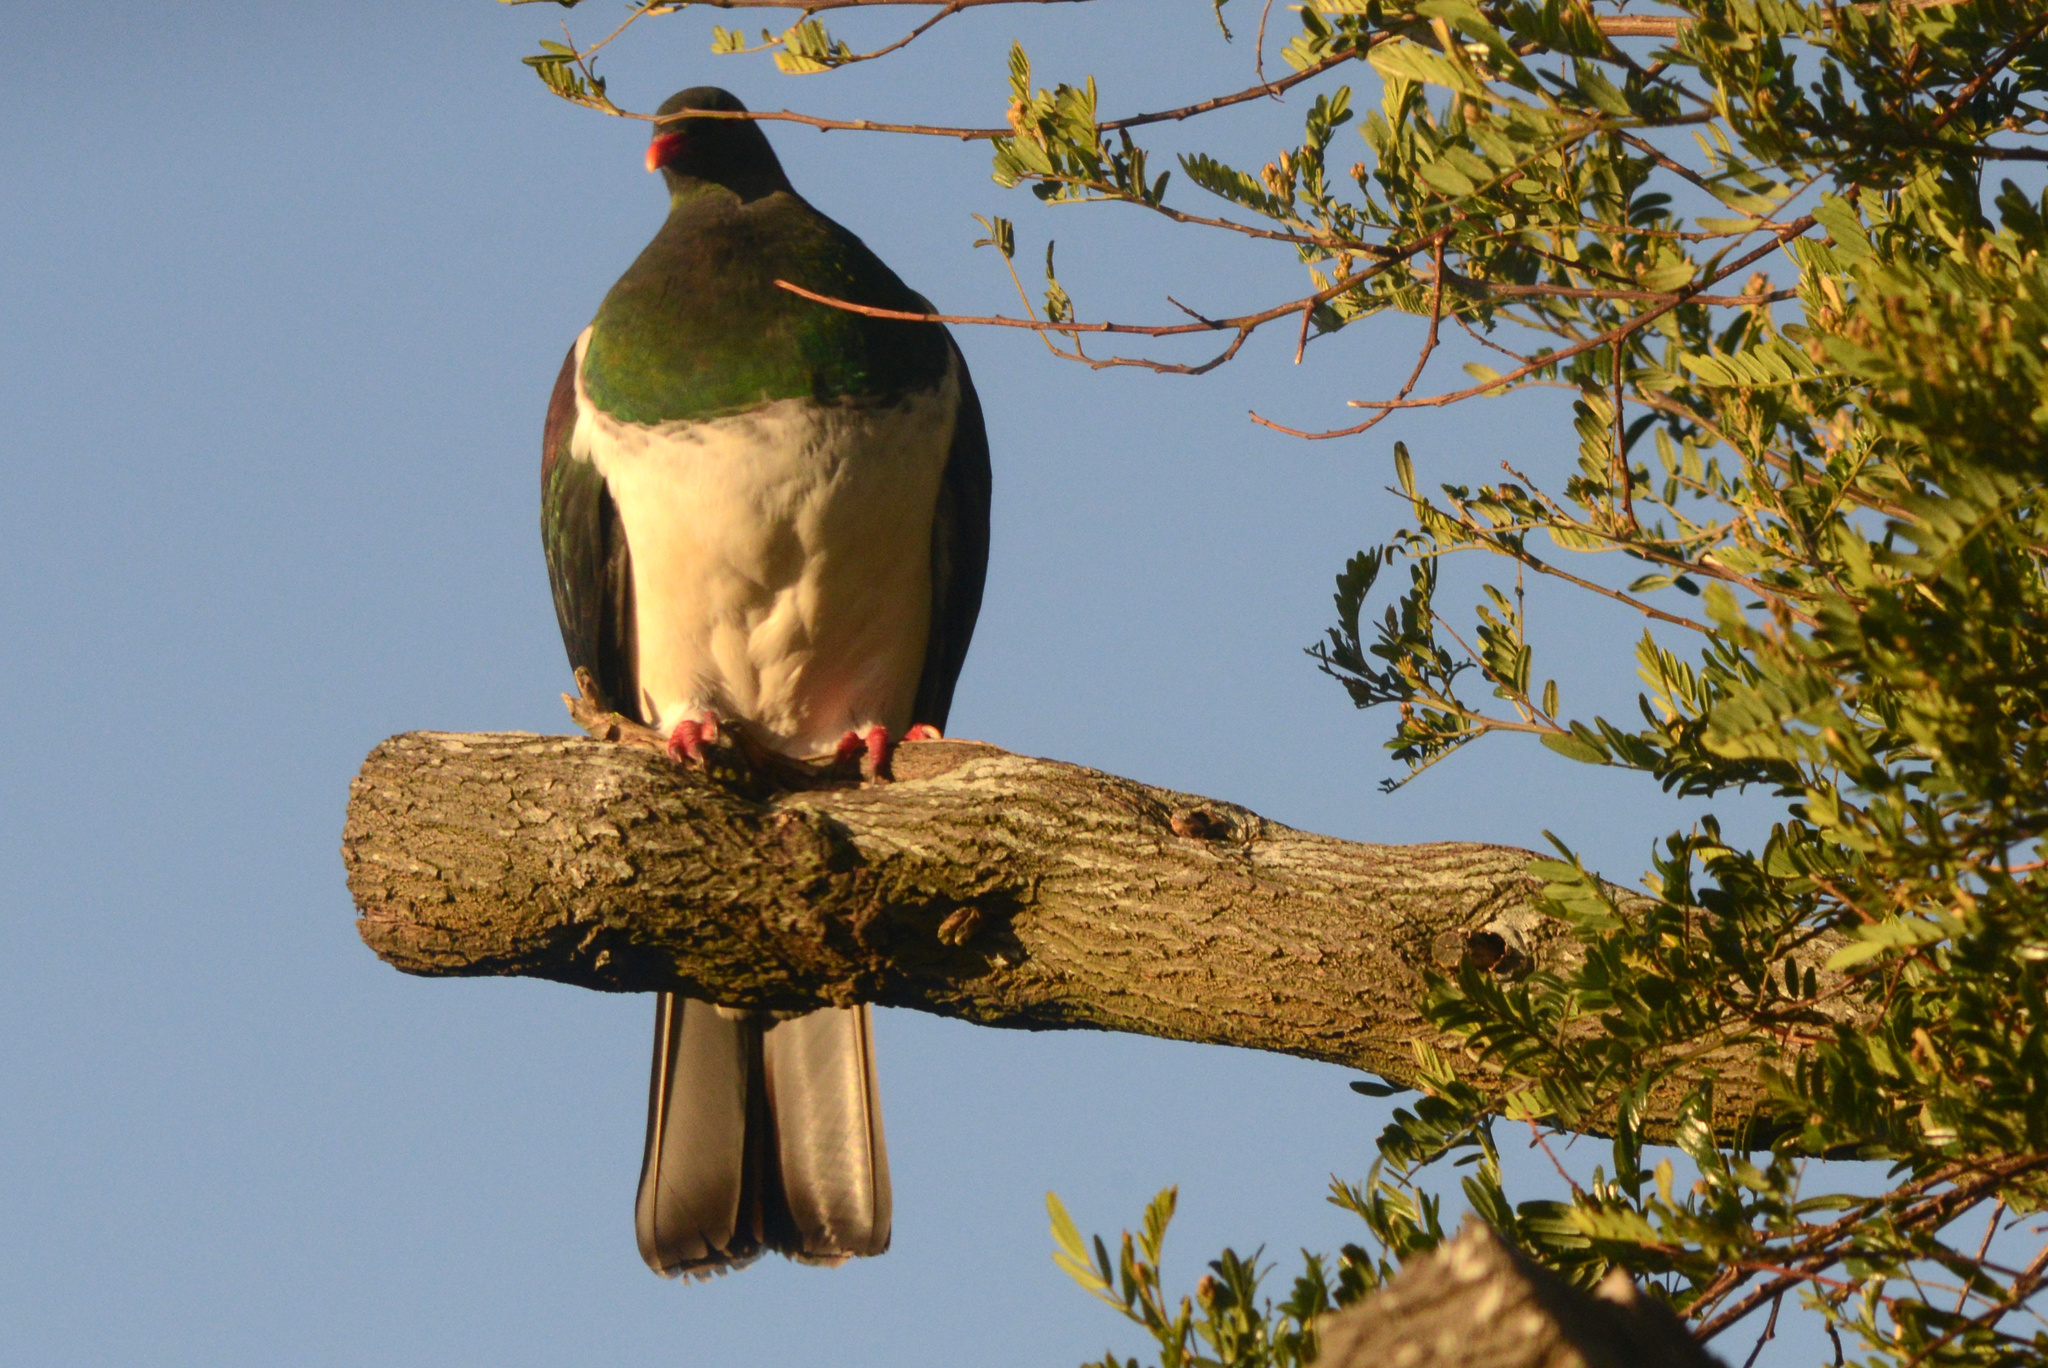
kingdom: Animalia
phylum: Chordata
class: Aves
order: Columbiformes
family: Columbidae
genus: Hemiphaga
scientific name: Hemiphaga novaeseelandiae
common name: New zealand pigeon
